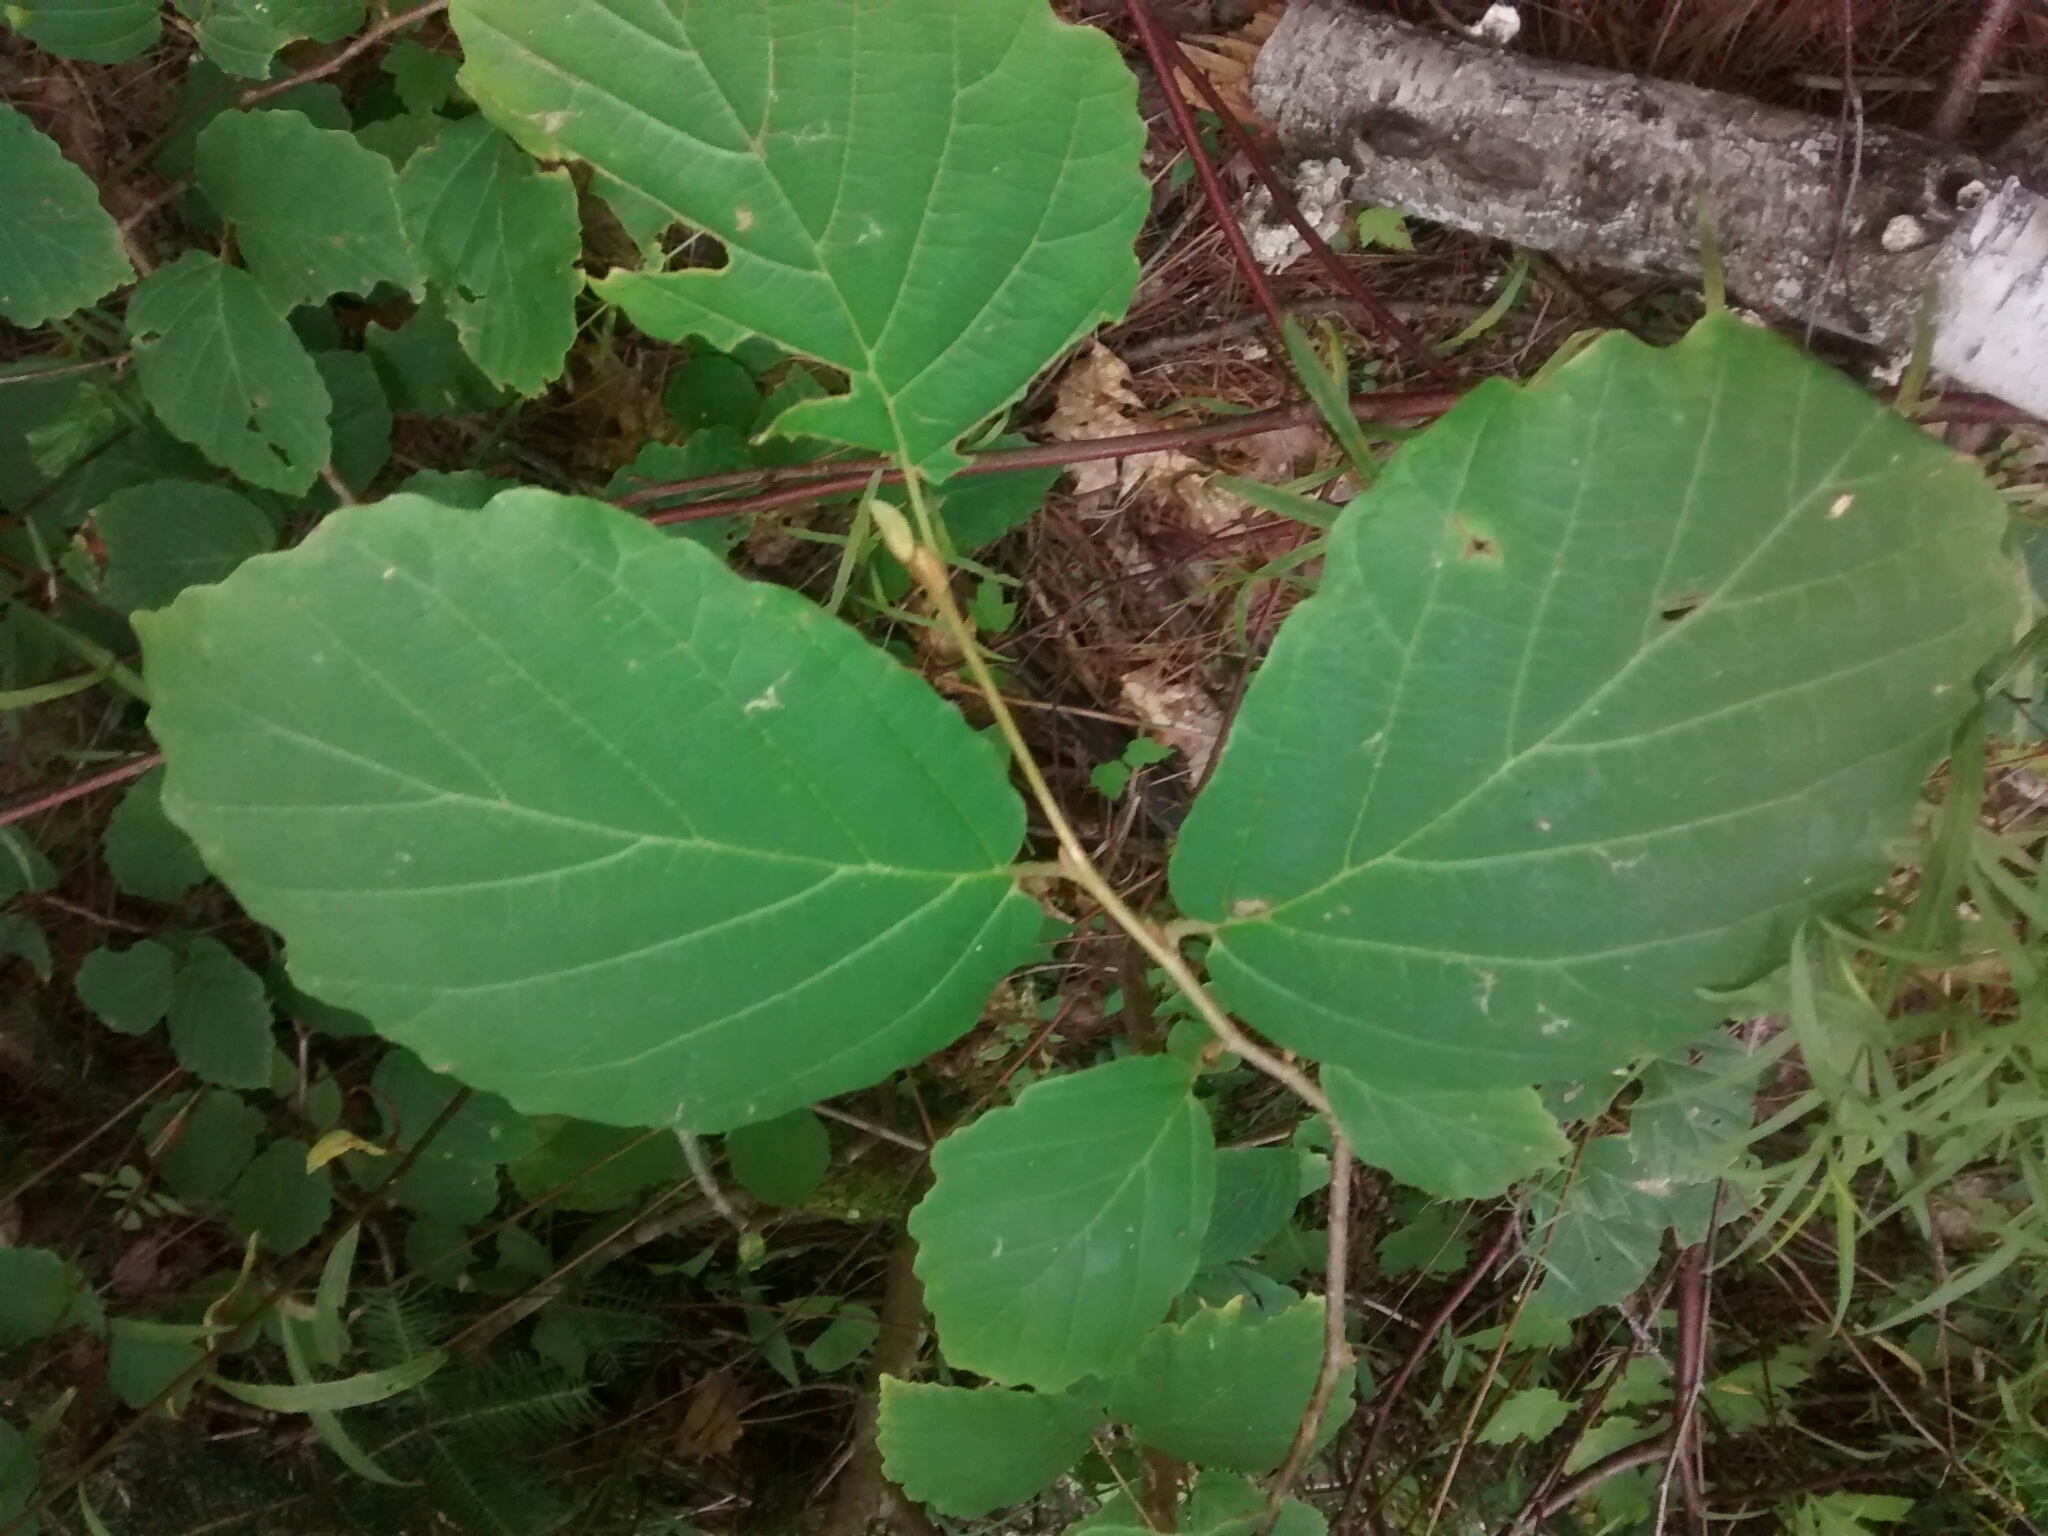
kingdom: Plantae
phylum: Tracheophyta
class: Magnoliopsida
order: Saxifragales
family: Hamamelidaceae
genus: Hamamelis
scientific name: Hamamelis virginiana
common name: Witch-hazel
